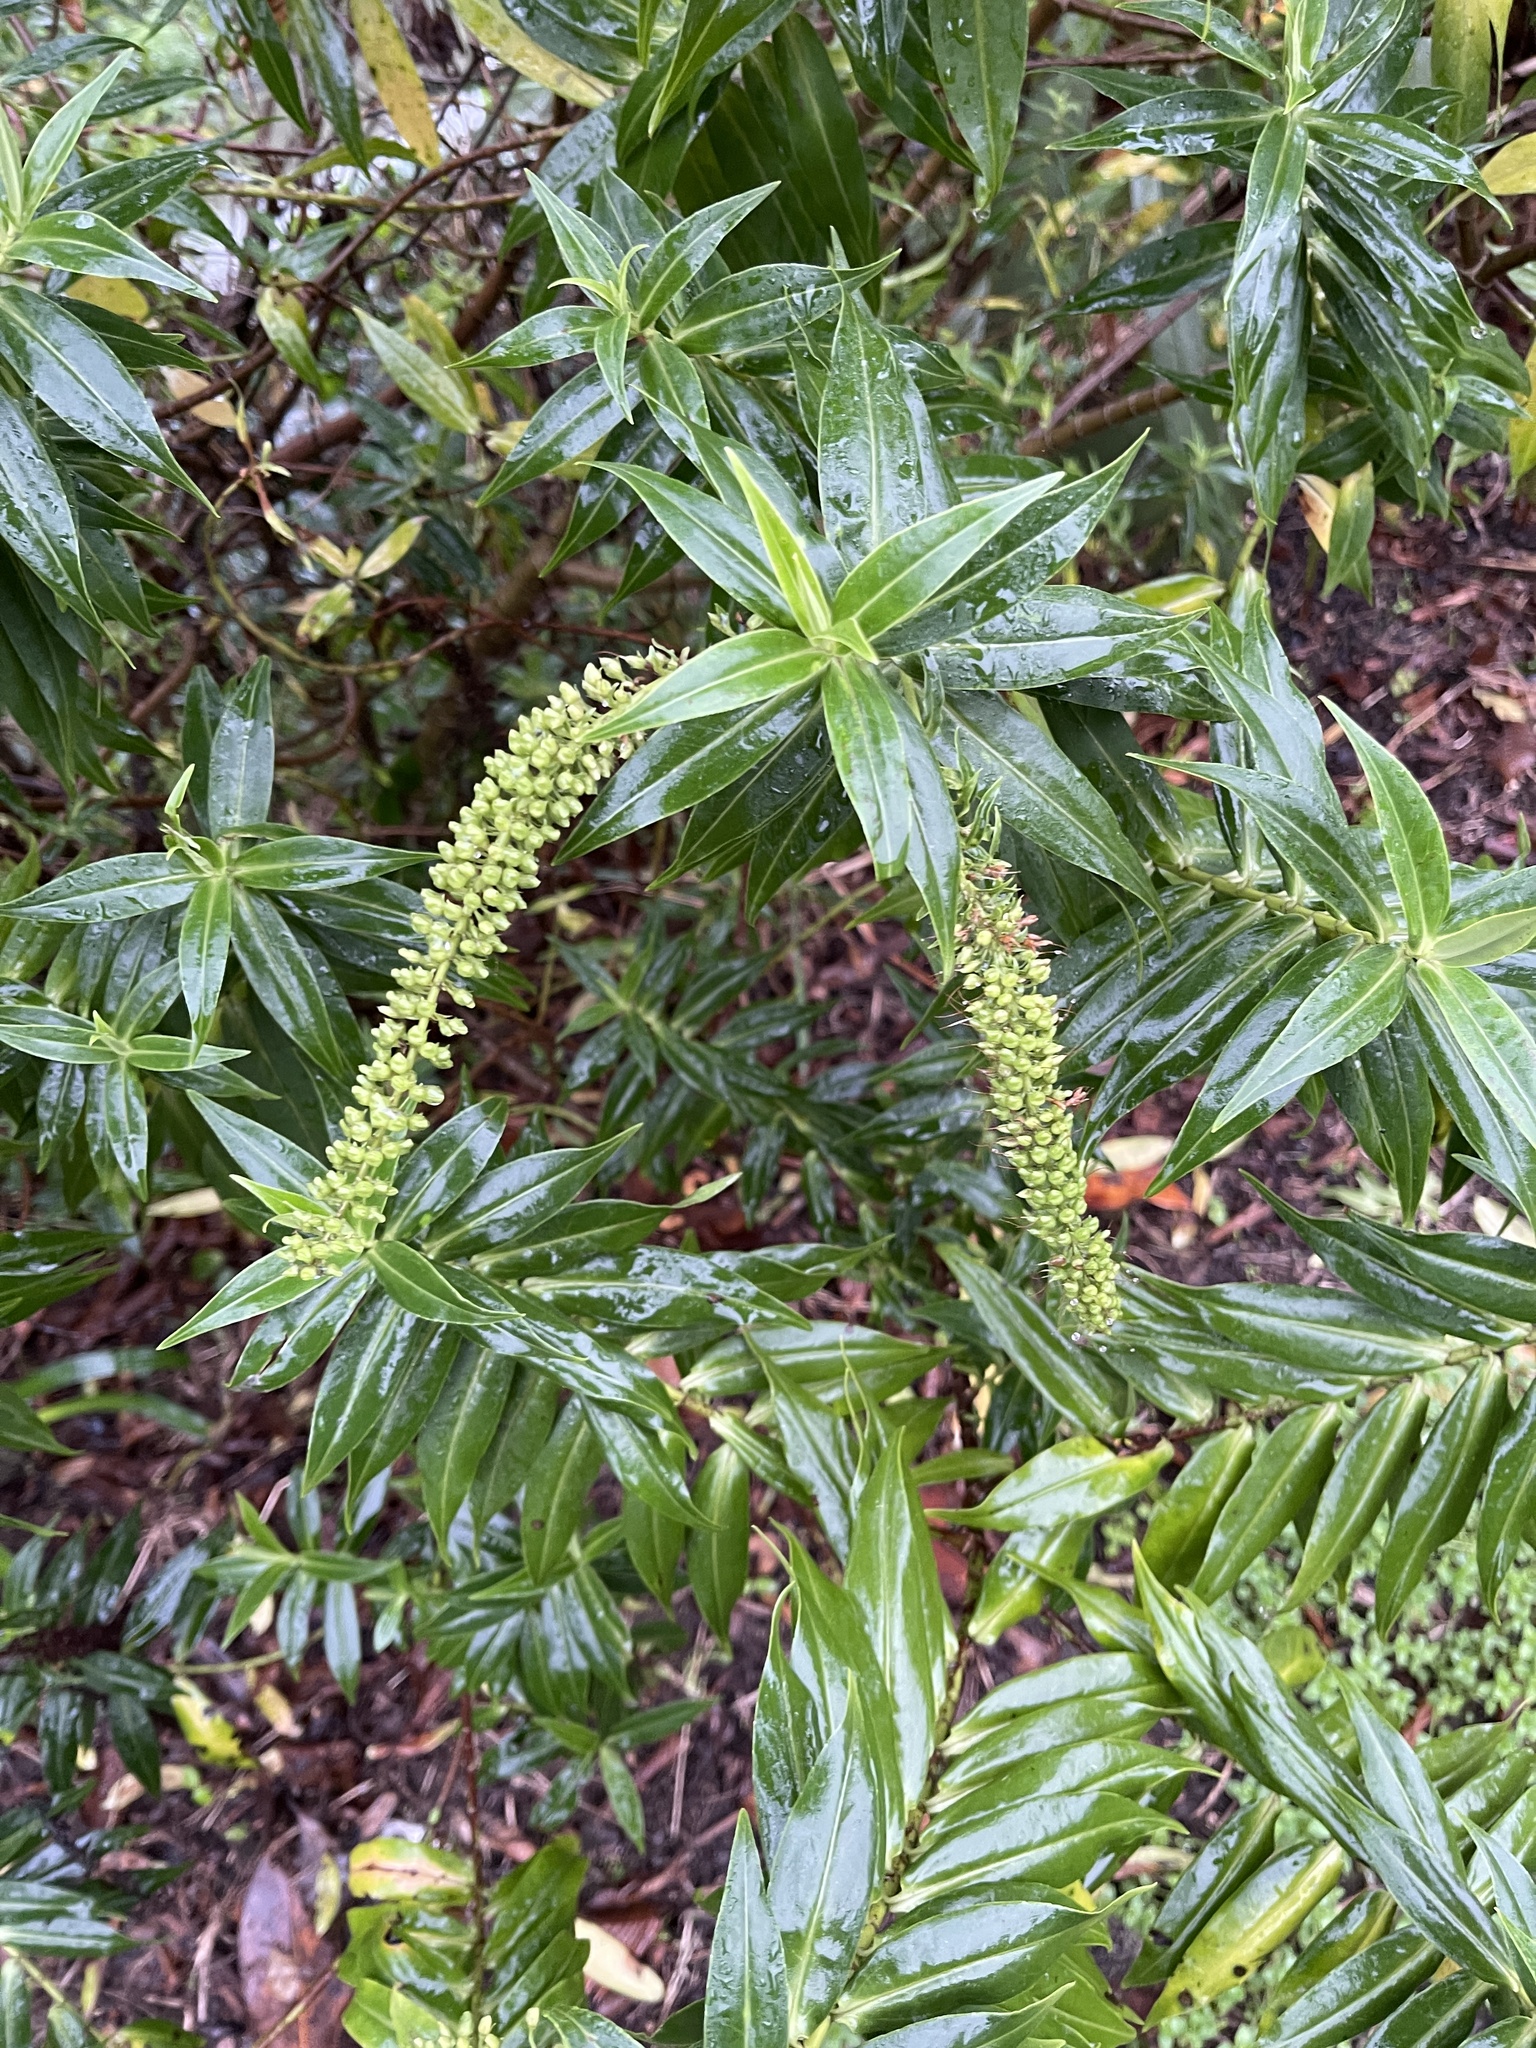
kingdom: Plantae
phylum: Tracheophyta
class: Magnoliopsida
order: Lamiales
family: Plantaginaceae
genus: Veronica
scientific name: Veronica salicifolia
